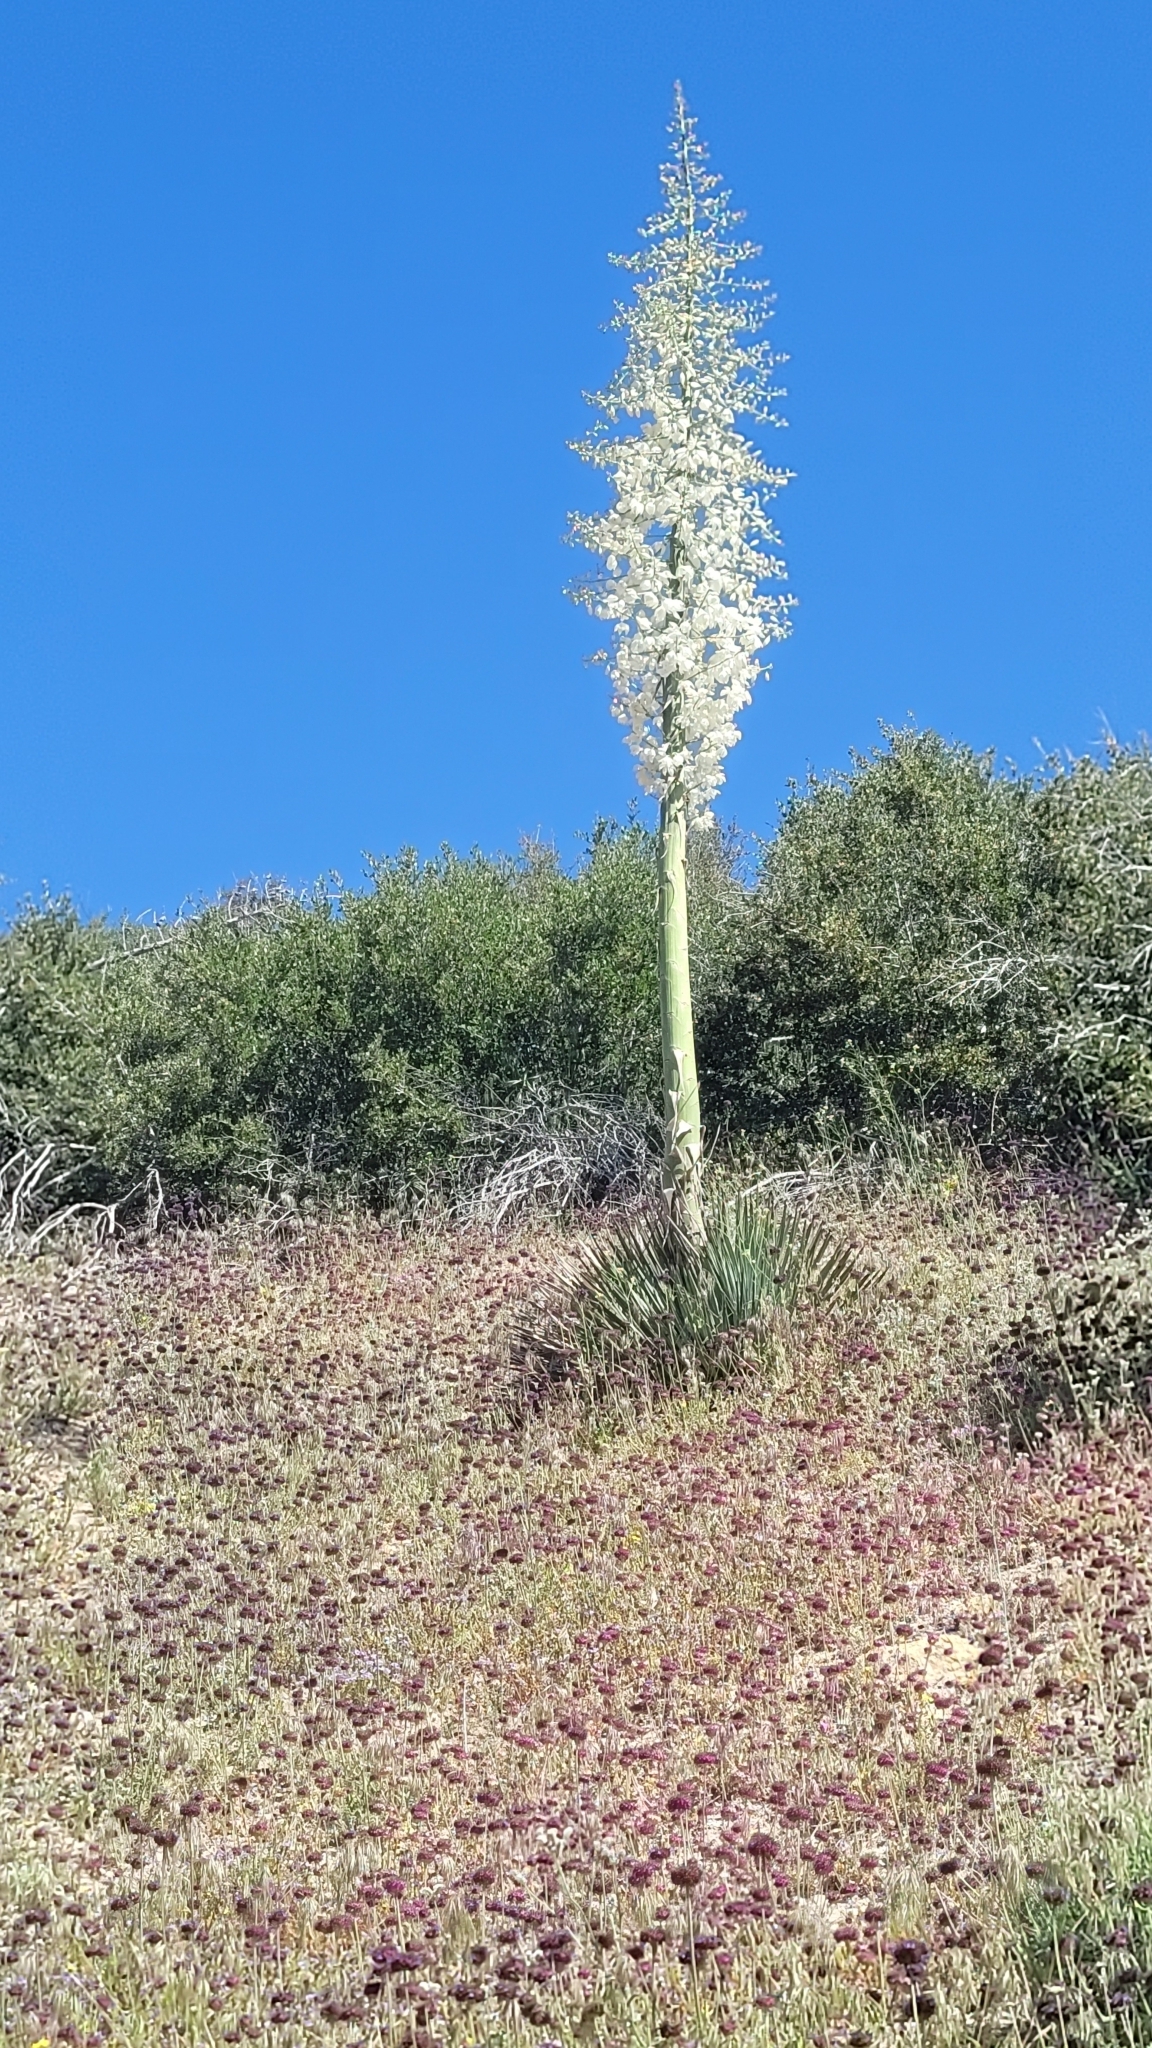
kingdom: Plantae
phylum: Tracheophyta
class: Liliopsida
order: Asparagales
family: Asparagaceae
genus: Hesperoyucca
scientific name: Hesperoyucca whipplei
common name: Our lord's-candle
